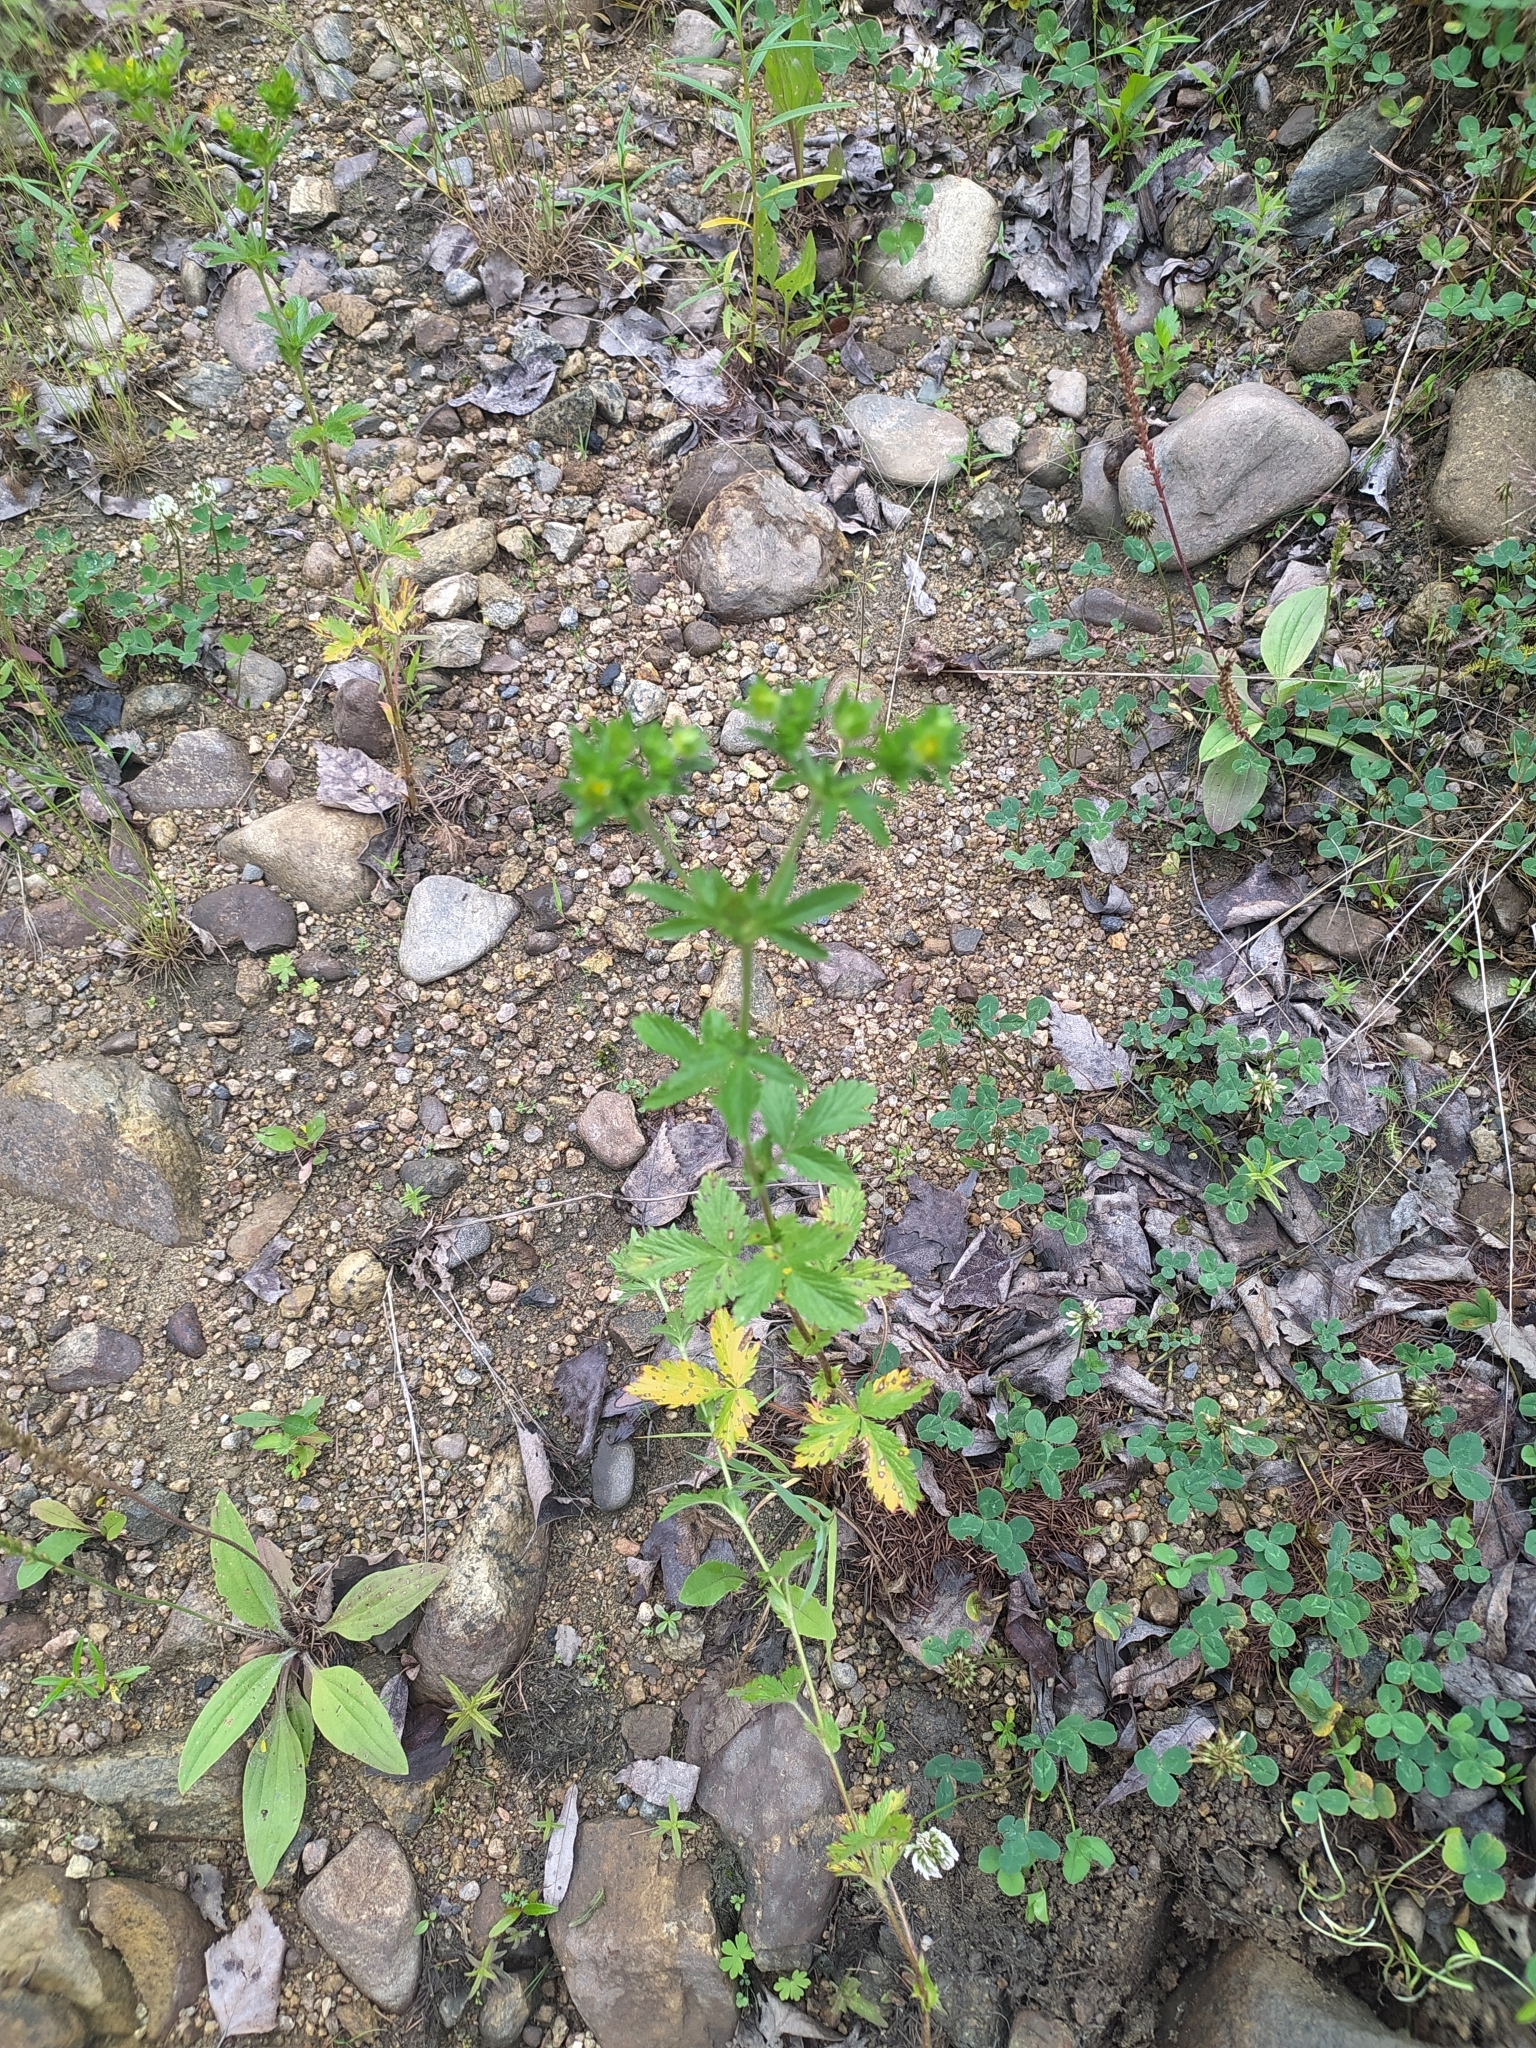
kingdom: Plantae
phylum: Tracheophyta
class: Magnoliopsida
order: Rosales
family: Rosaceae
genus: Potentilla
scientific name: Potentilla norvegica
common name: Ternate-leaved cinquefoil
